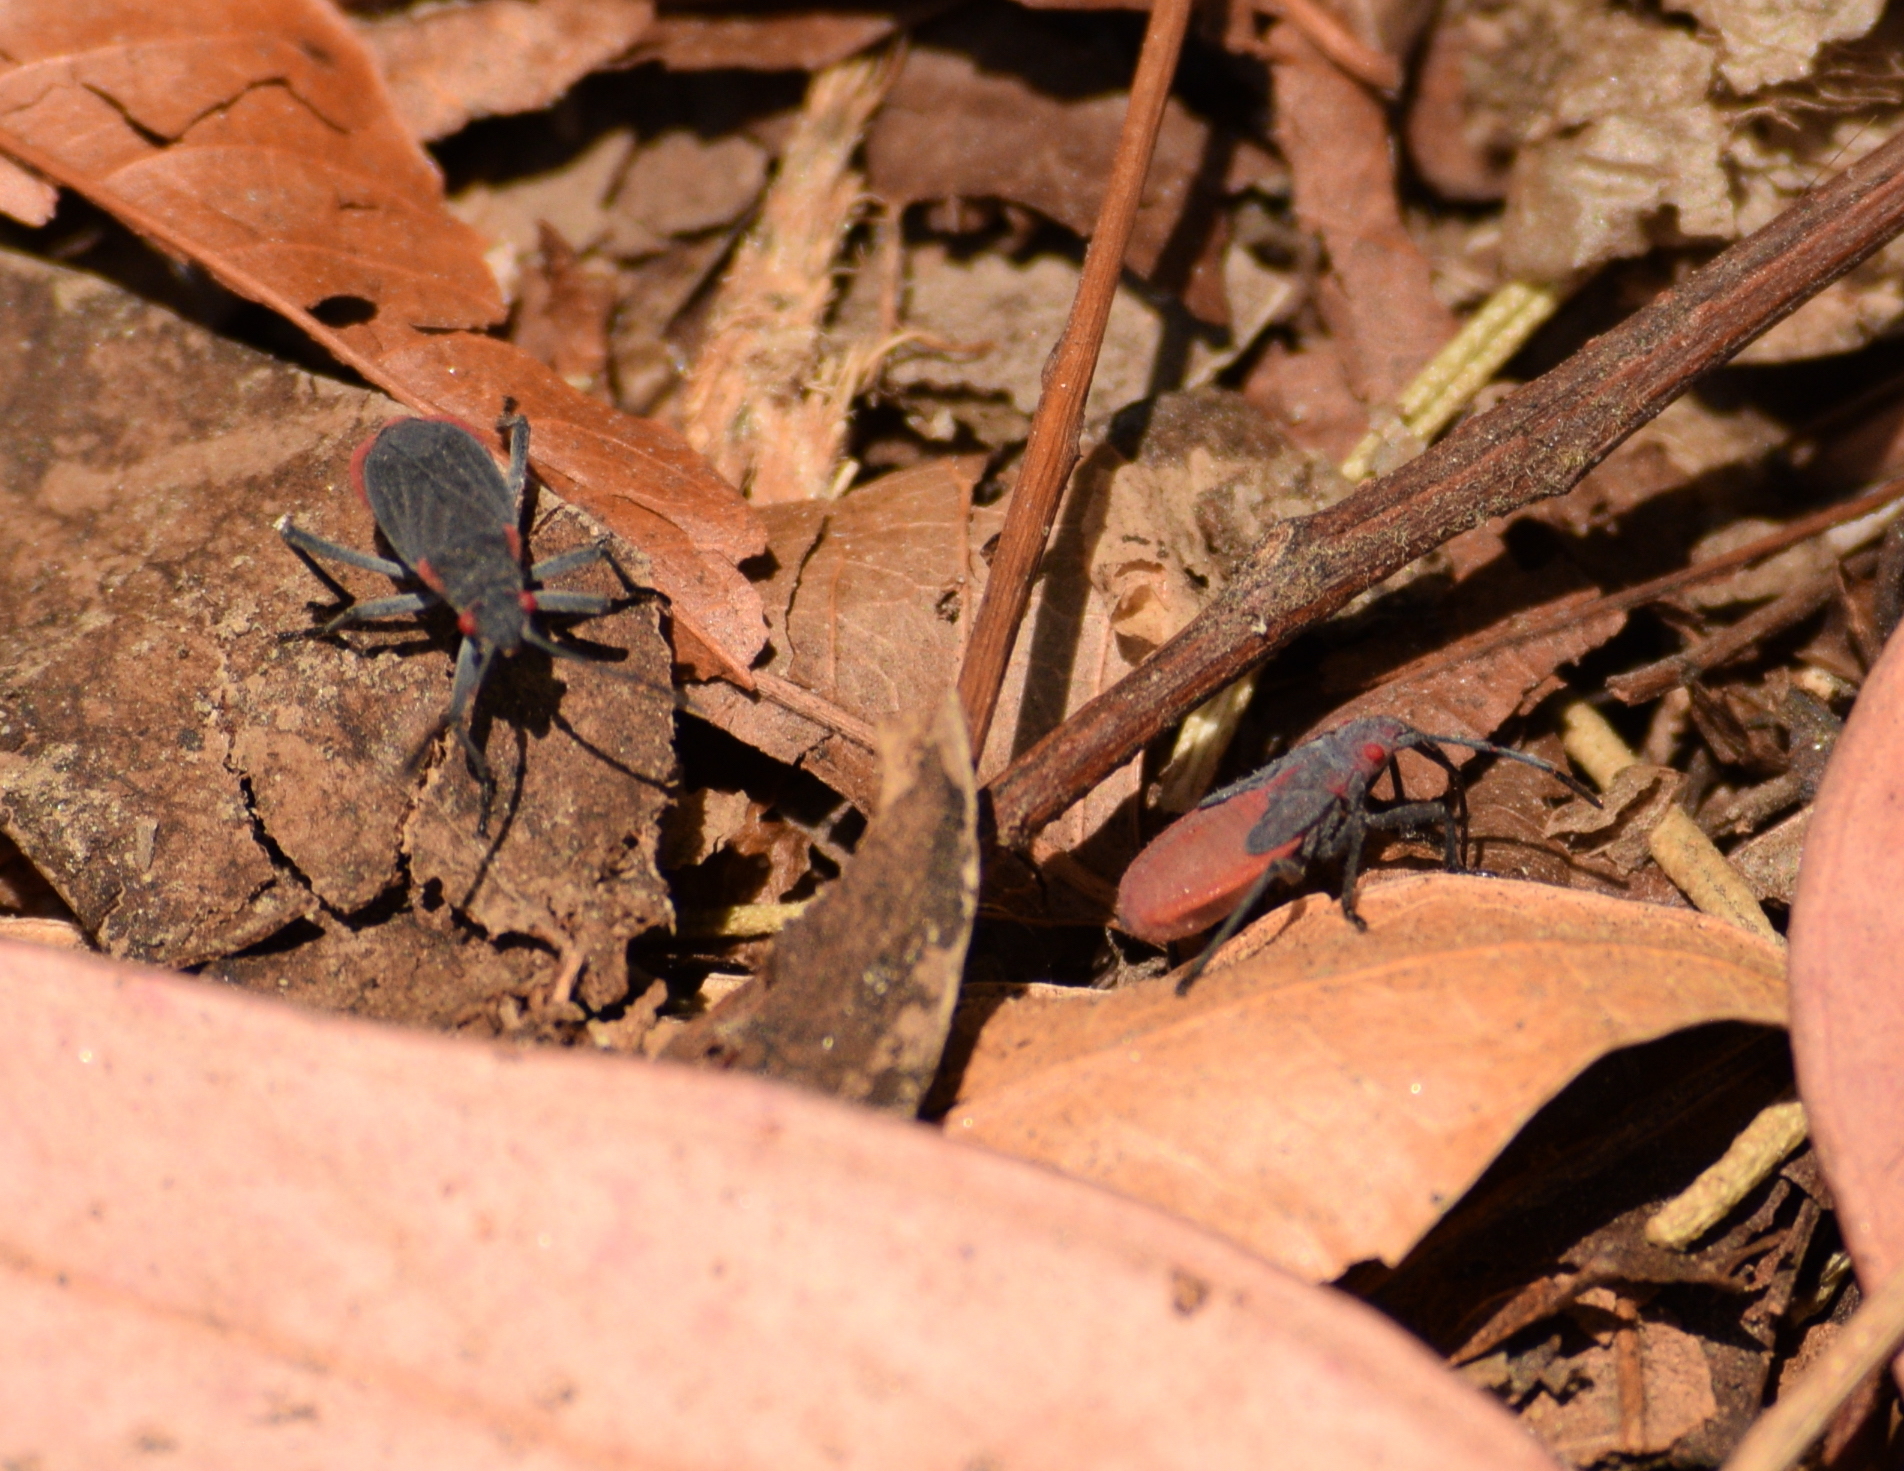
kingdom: Animalia
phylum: Arthropoda
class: Insecta
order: Hemiptera
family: Rhopalidae
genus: Jadera
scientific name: Jadera haematoloma
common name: Red-shouldered bug
